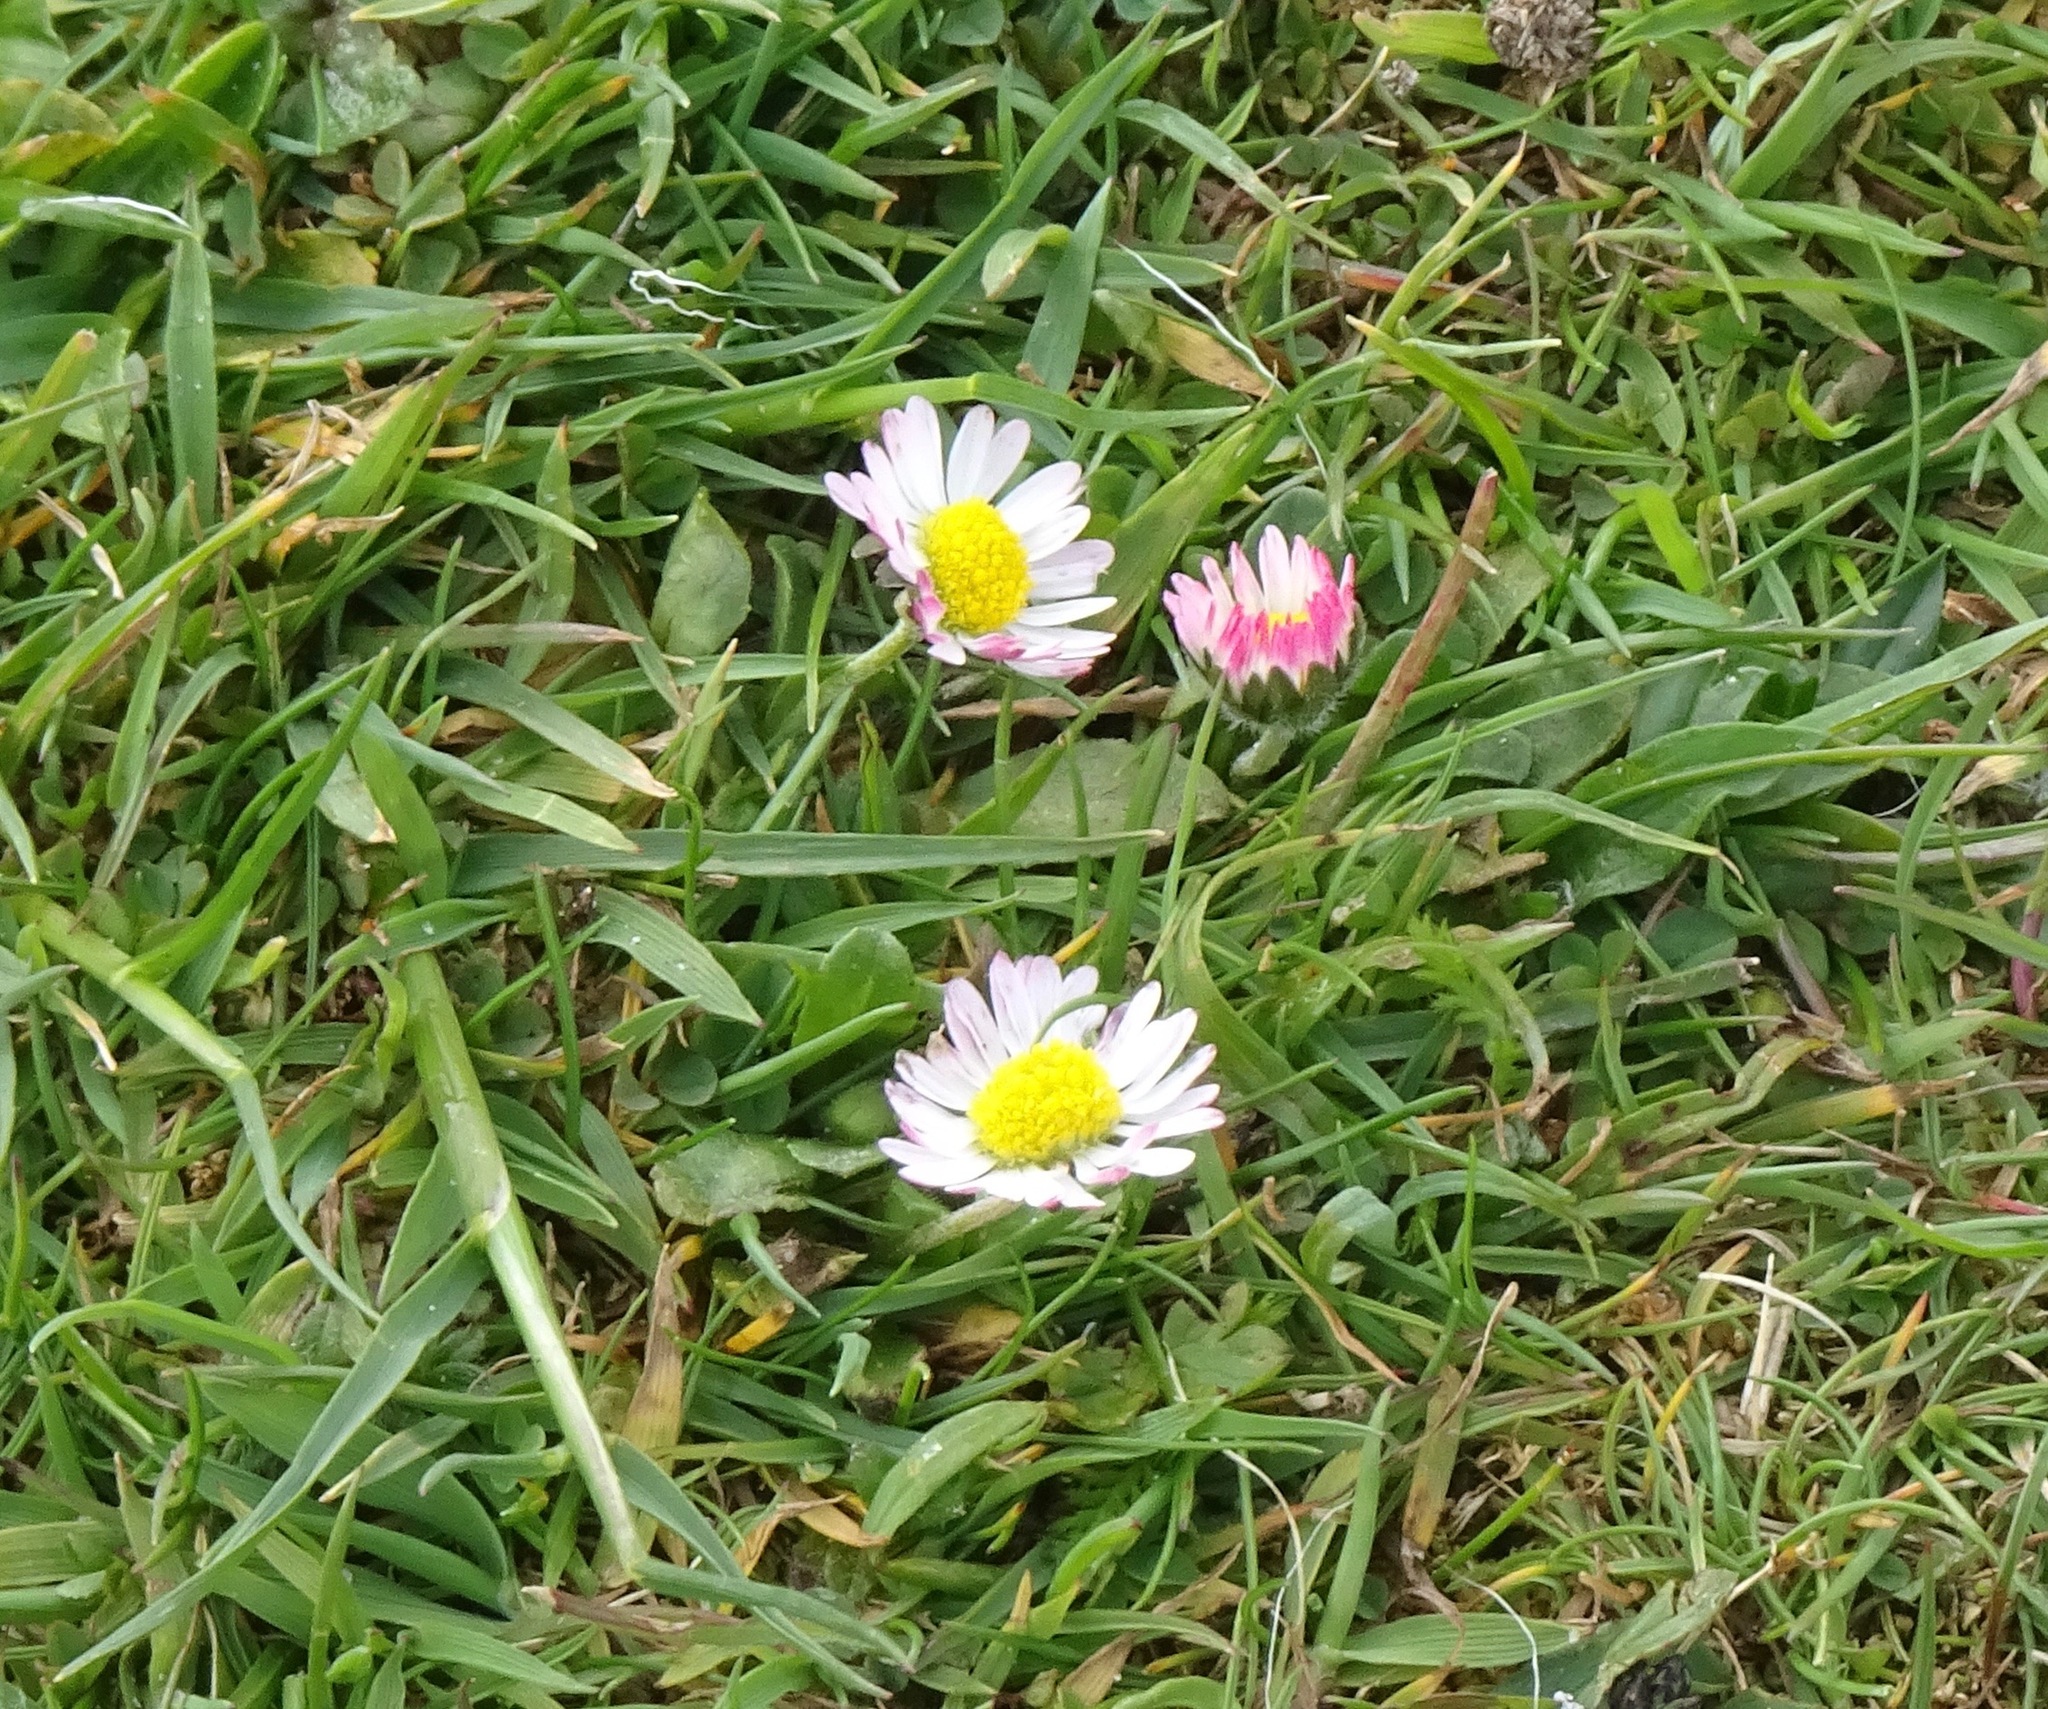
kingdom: Plantae
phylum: Tracheophyta
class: Magnoliopsida
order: Asterales
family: Asteraceae
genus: Bellis
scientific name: Bellis perennis
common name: Lawndaisy
